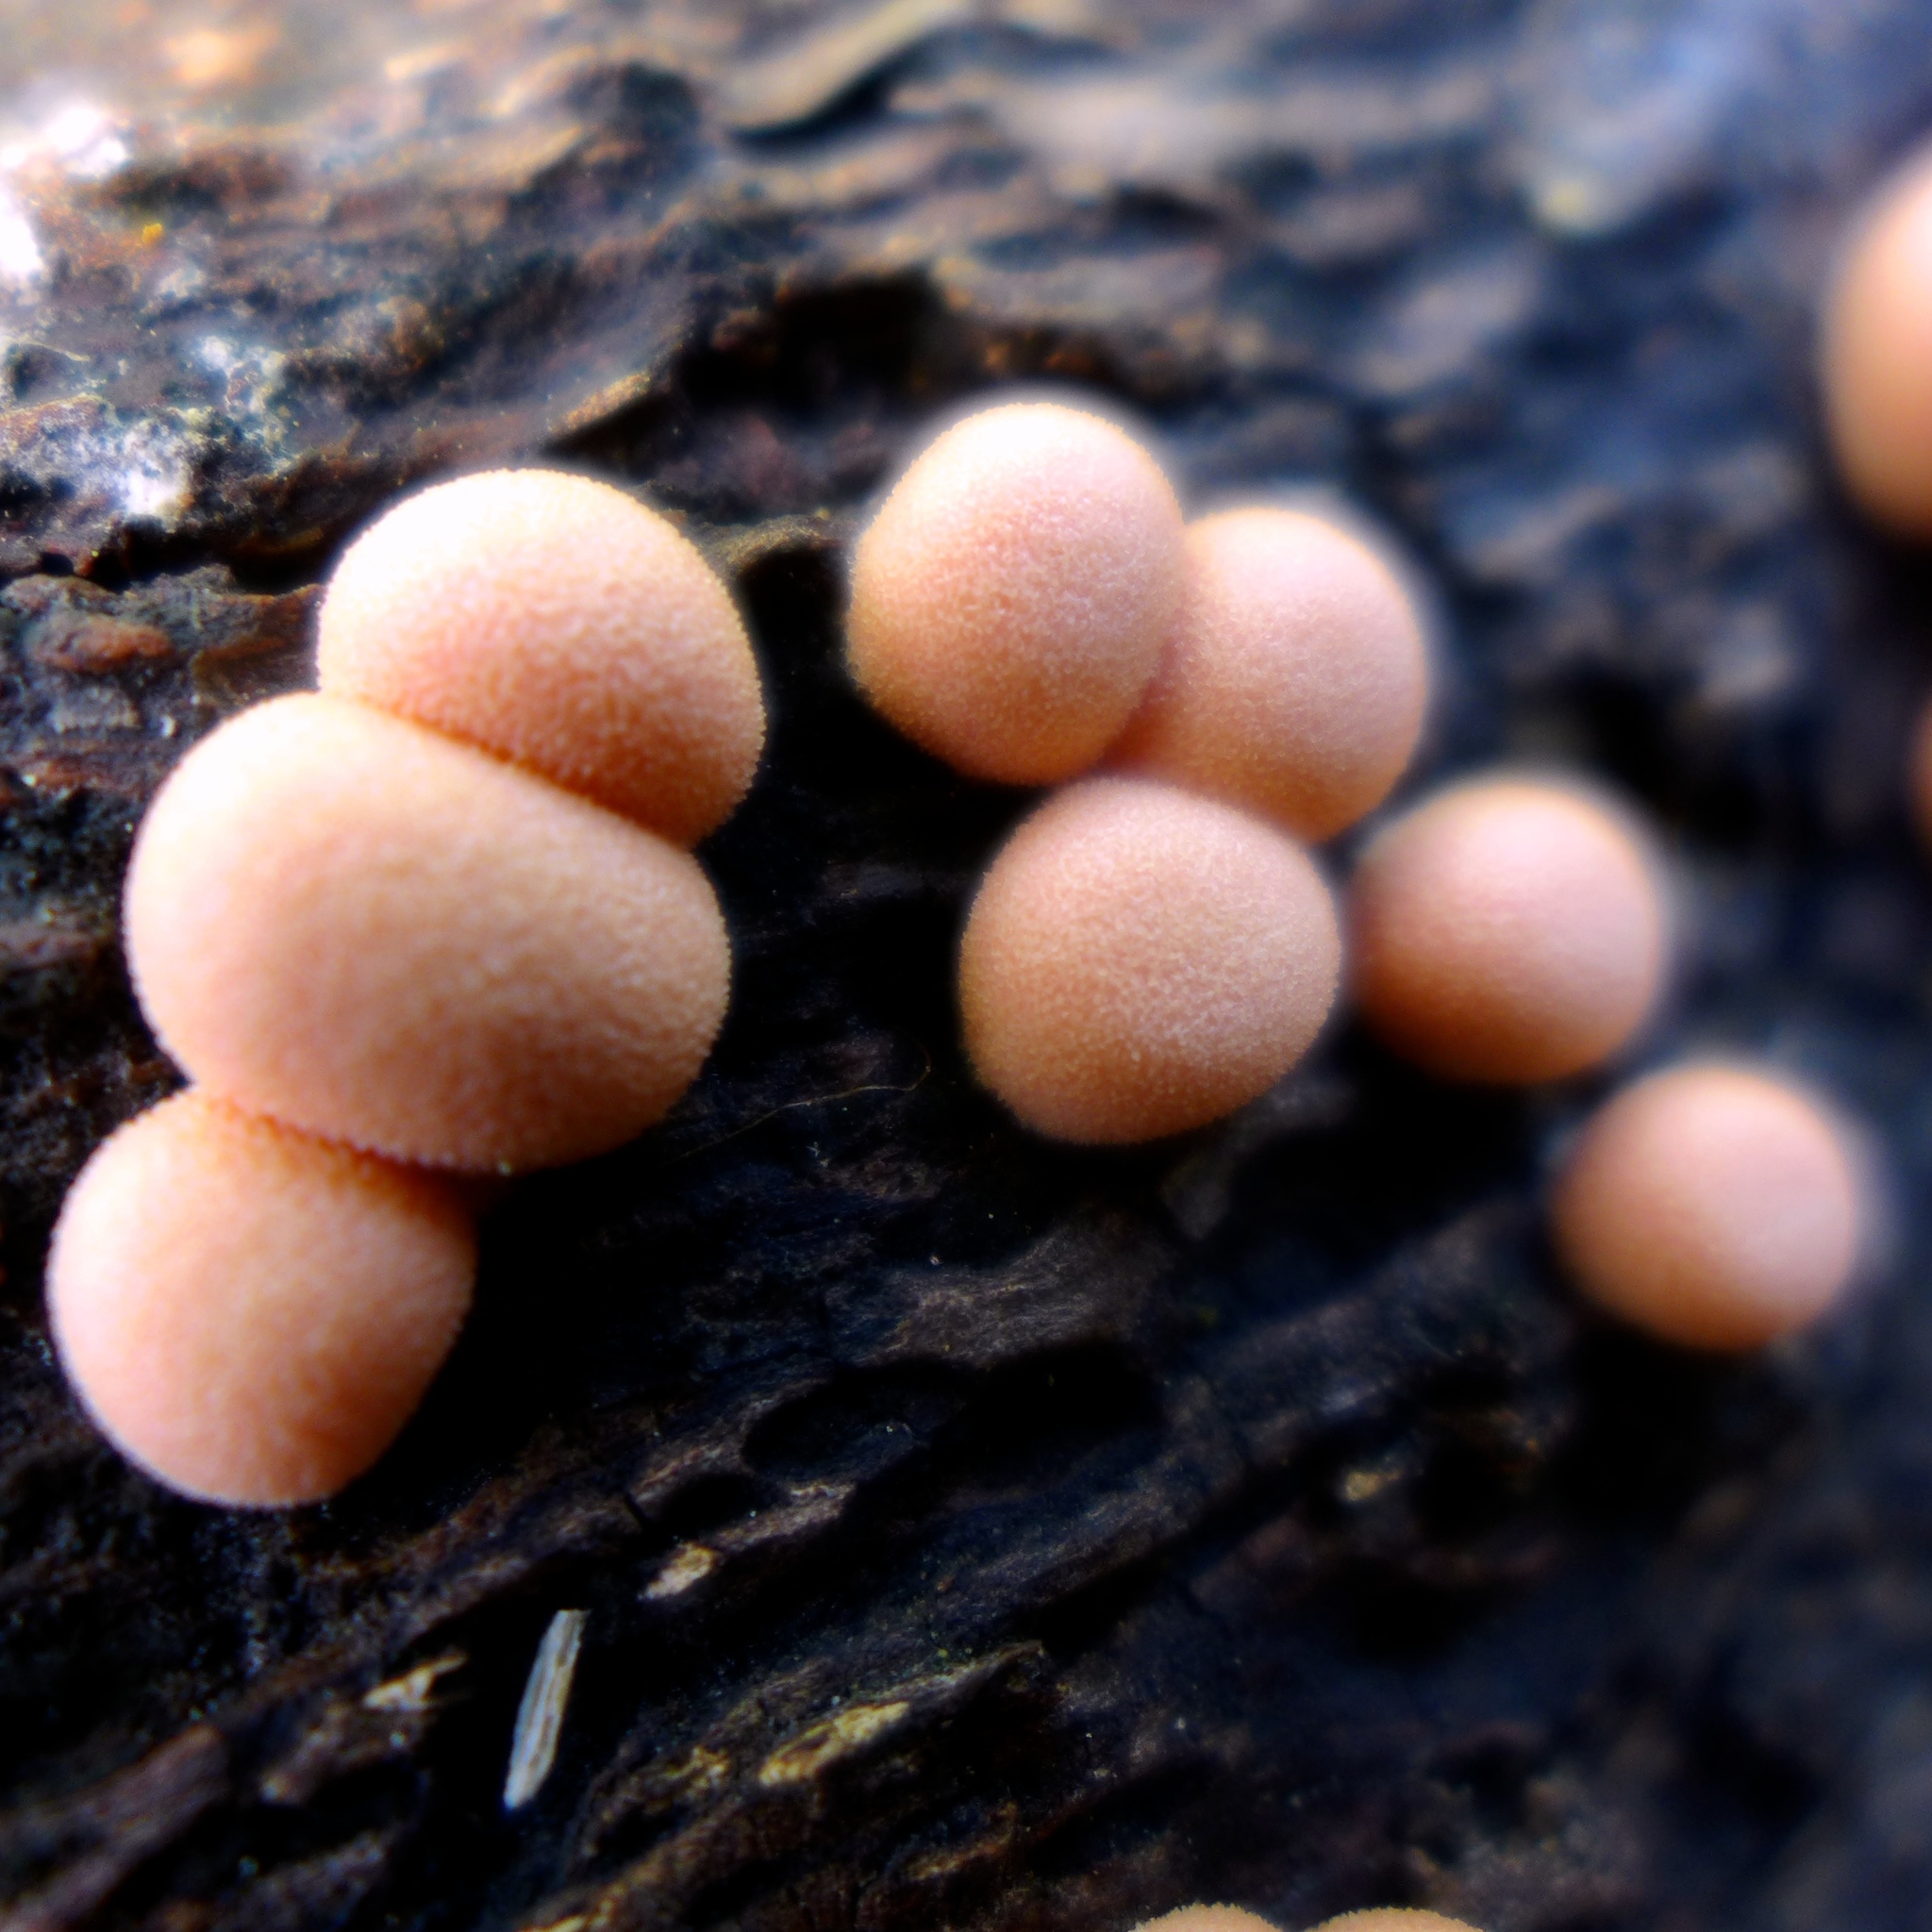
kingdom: Protozoa
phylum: Mycetozoa
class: Myxomycetes
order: Cribrariales
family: Tubiferaceae
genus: Lycogala
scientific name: Lycogala epidendrum
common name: Wolf's milk
